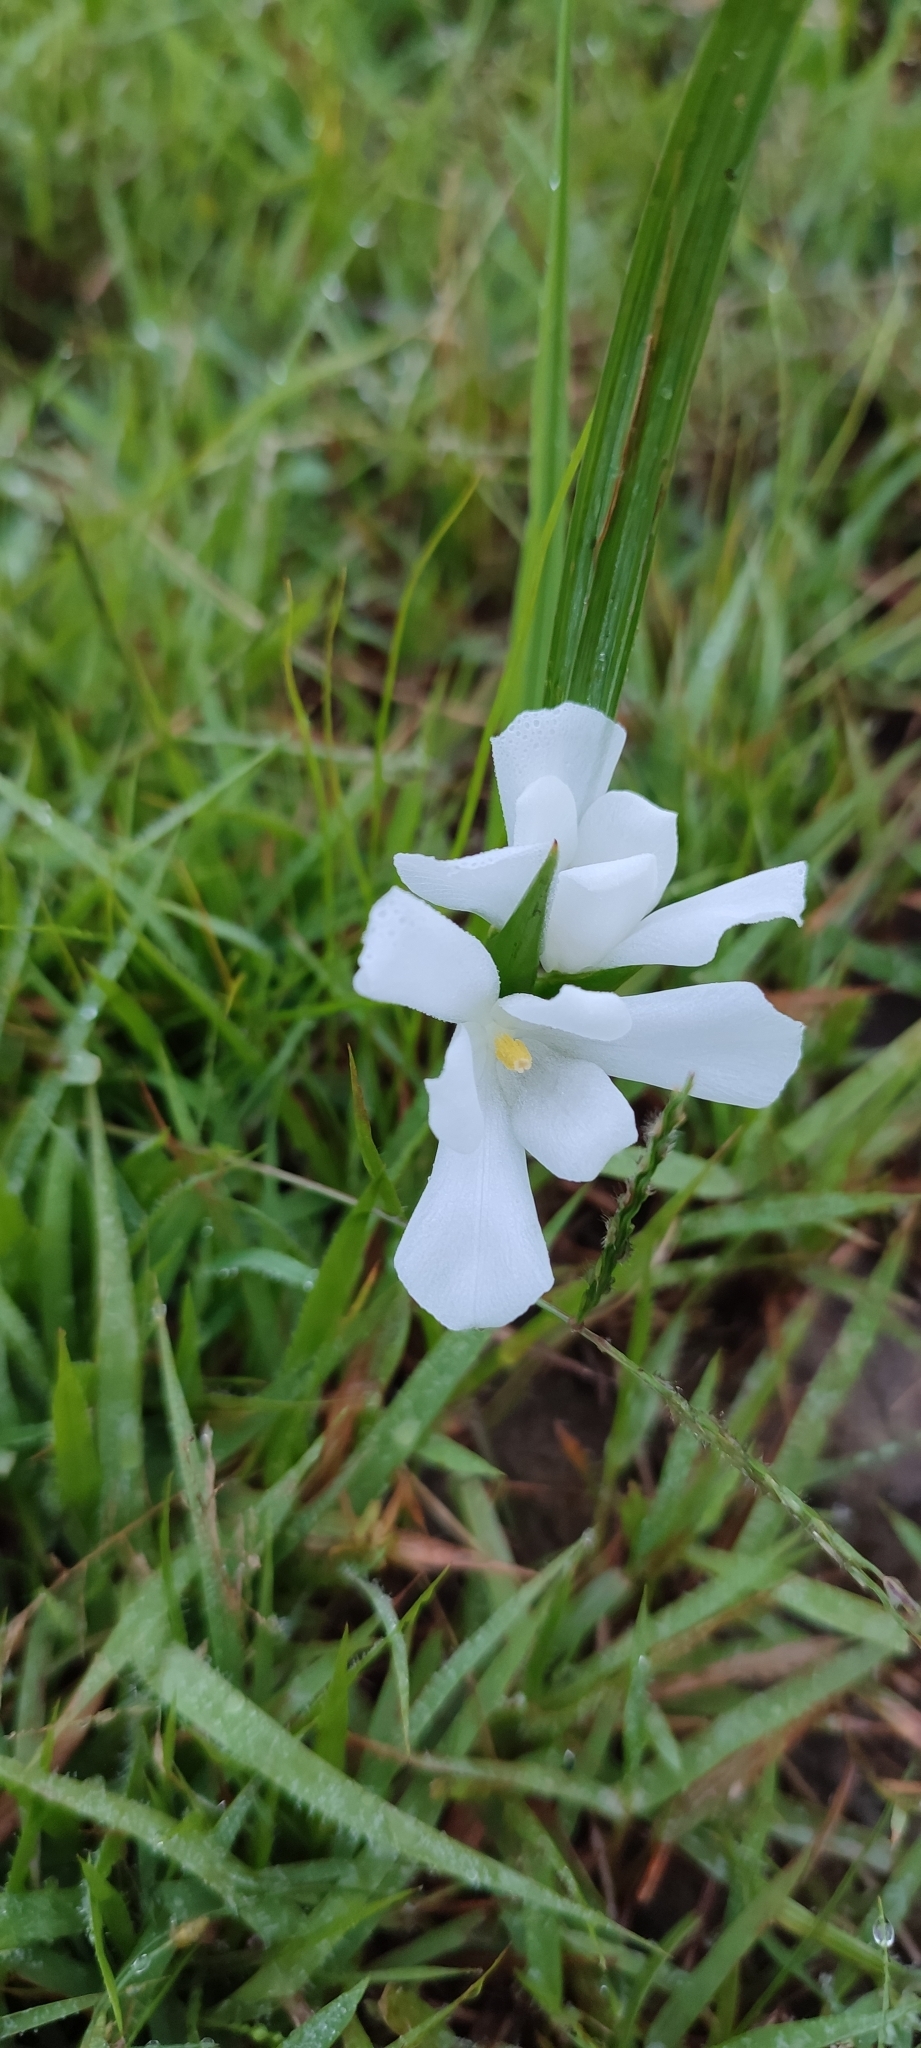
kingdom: Plantae
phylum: Tracheophyta
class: Liliopsida
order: Asparagales
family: Iridaceae
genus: Cipura
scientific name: Cipura campanulata
